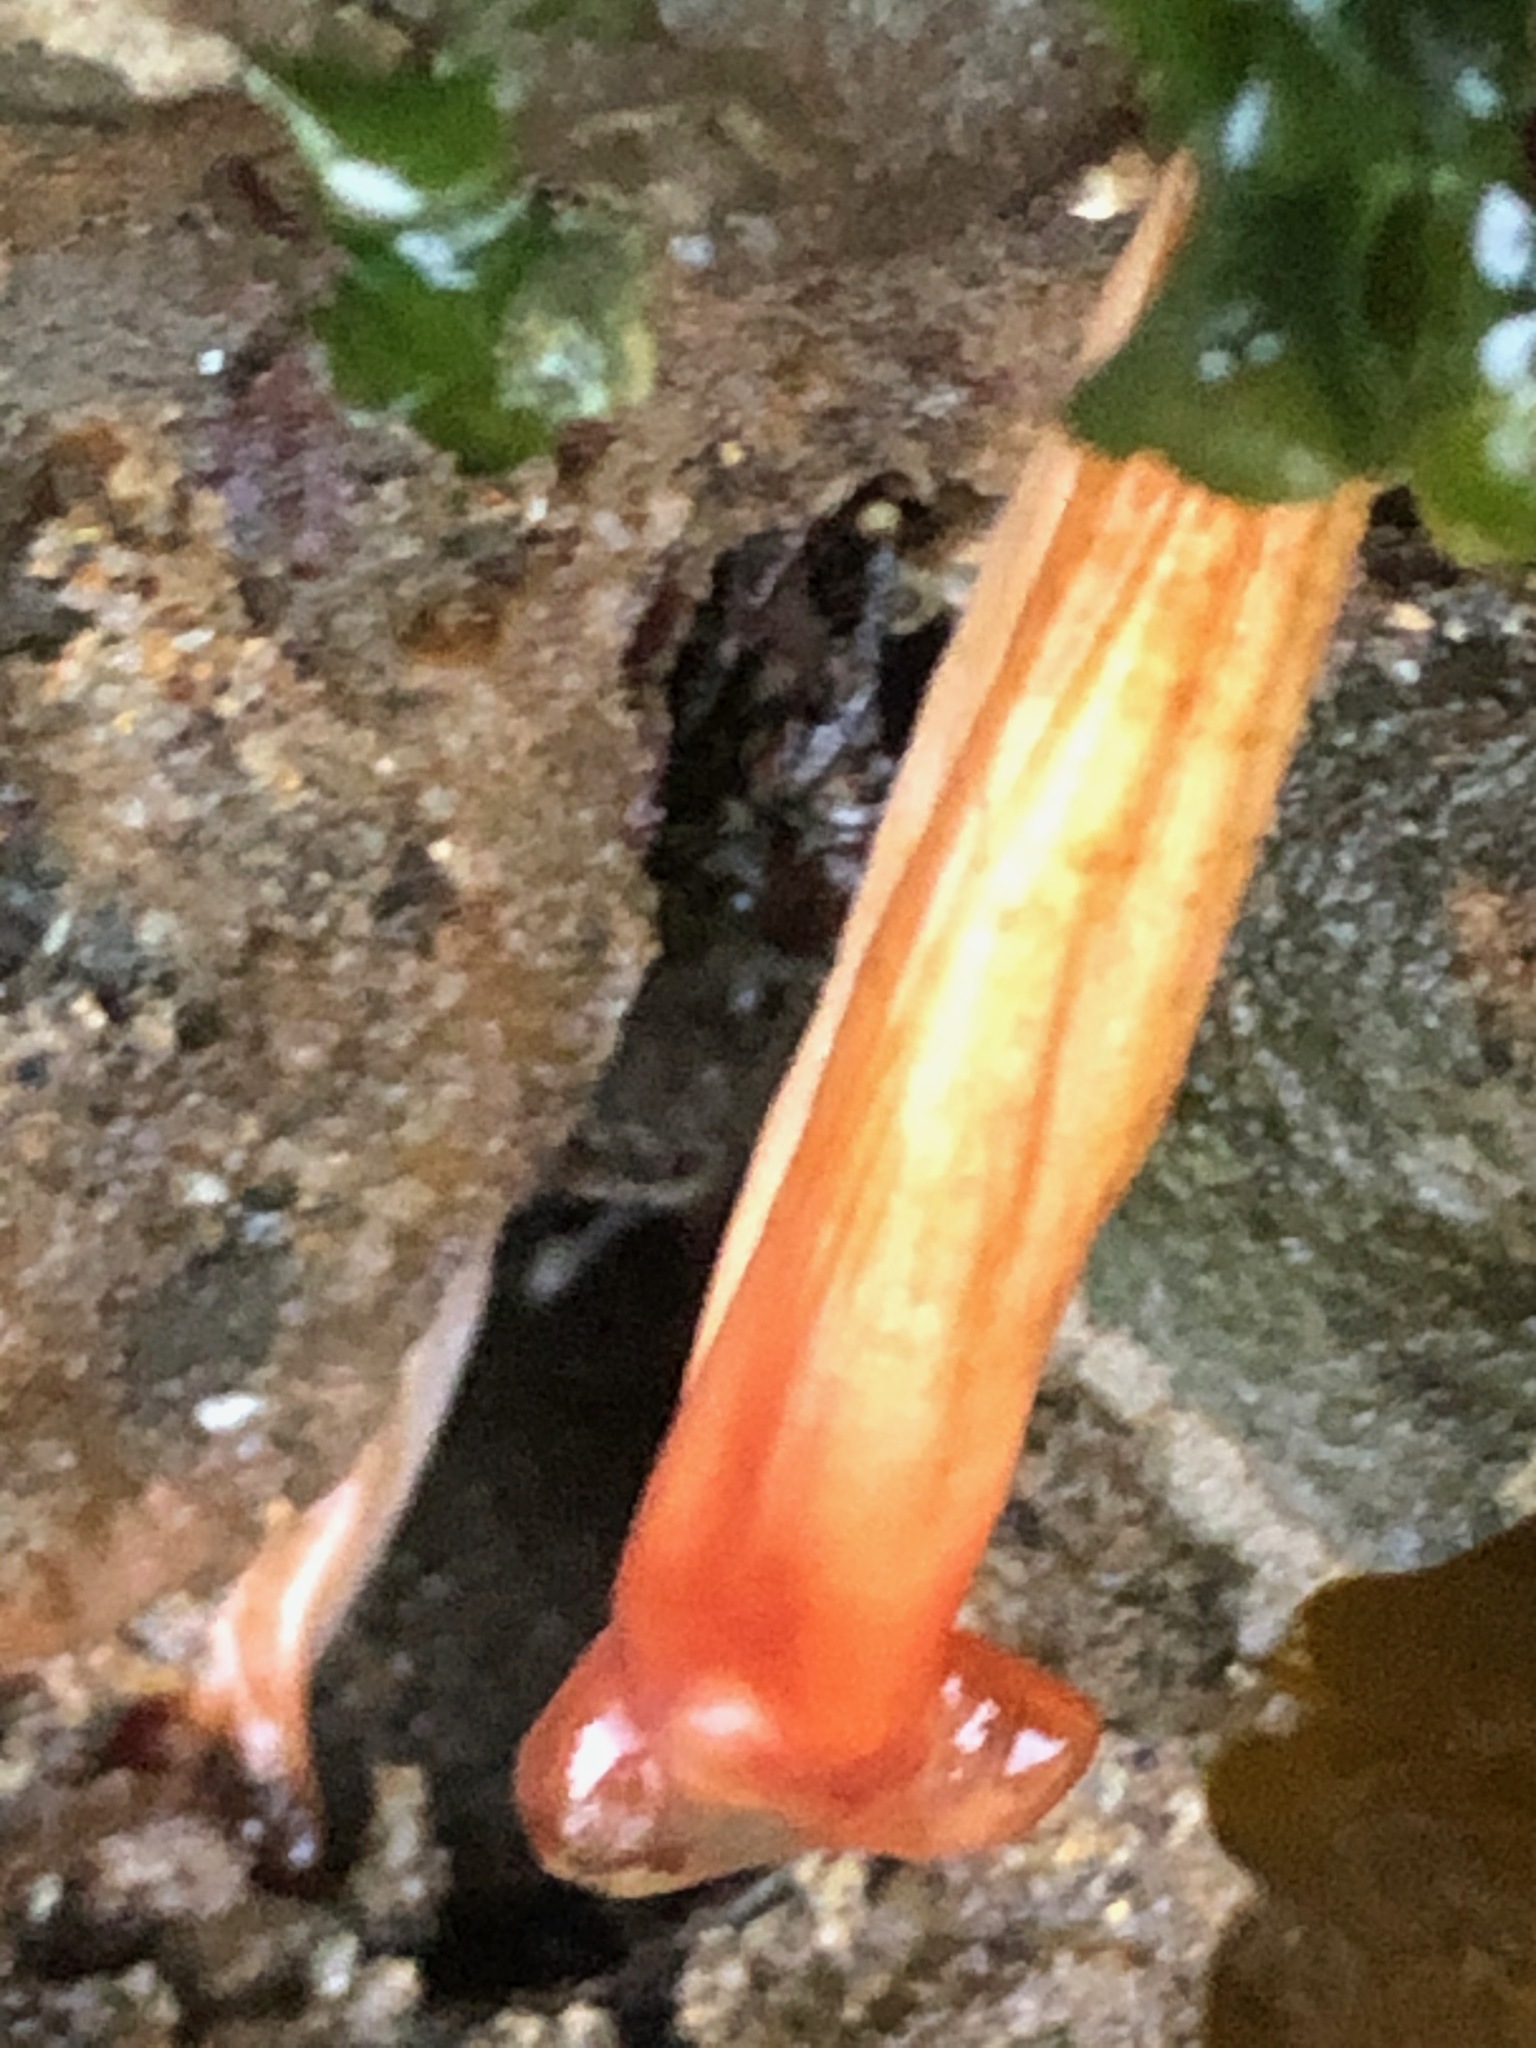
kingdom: Animalia
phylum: Chordata
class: Ascidiacea
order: Stolidobranchia
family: Styelidae
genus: Styela
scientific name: Styela montereyensis
